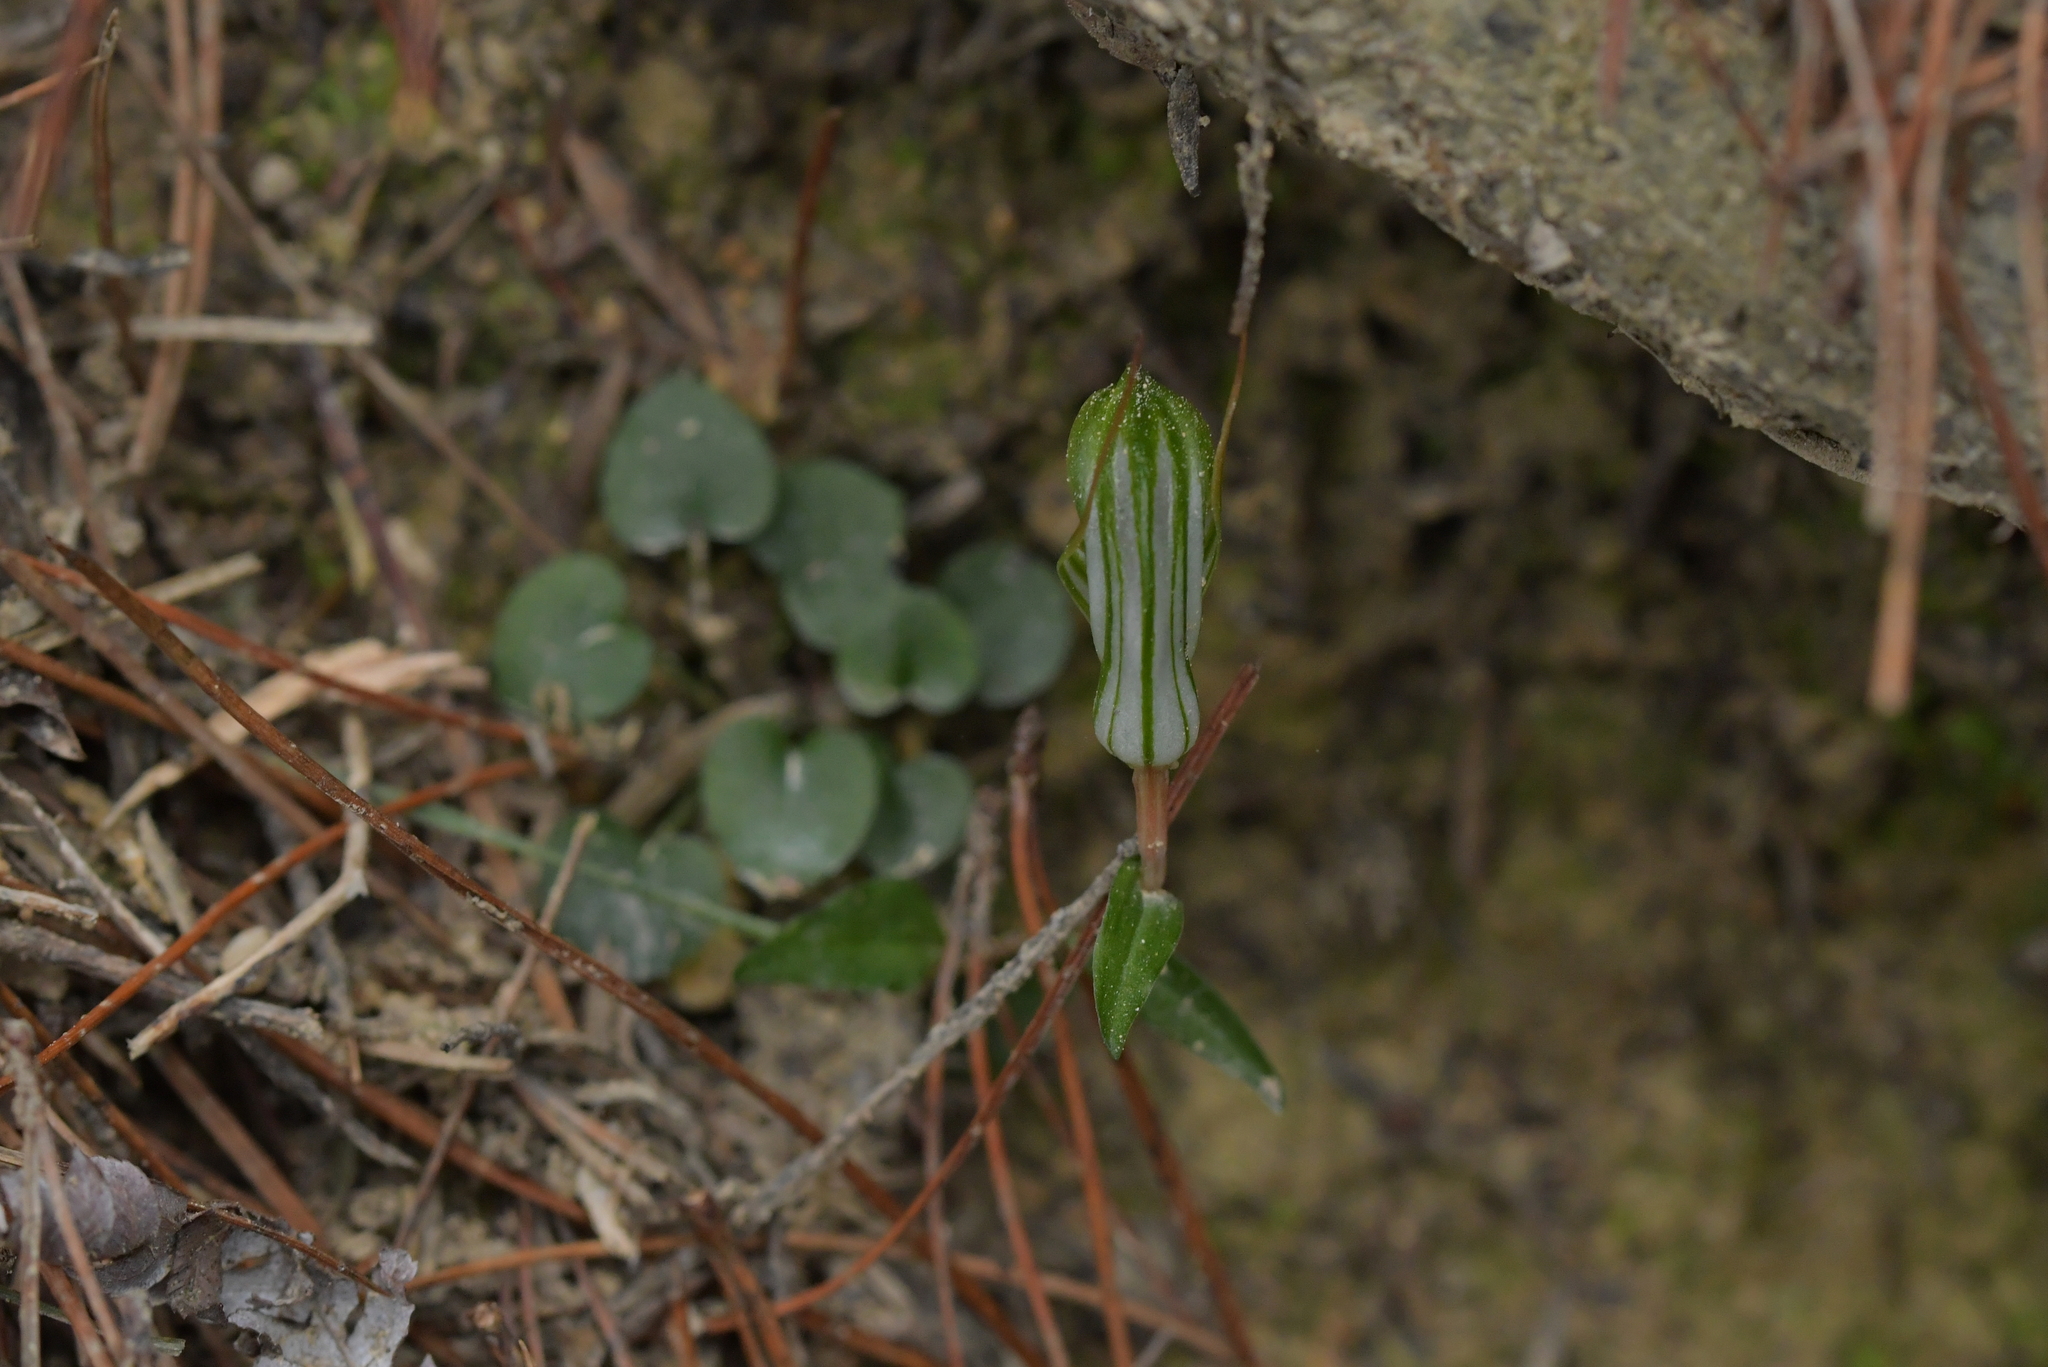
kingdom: Plantae
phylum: Tracheophyta
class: Liliopsida
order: Asparagales
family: Orchidaceae
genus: Pterostylis
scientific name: Pterostylis alobula
